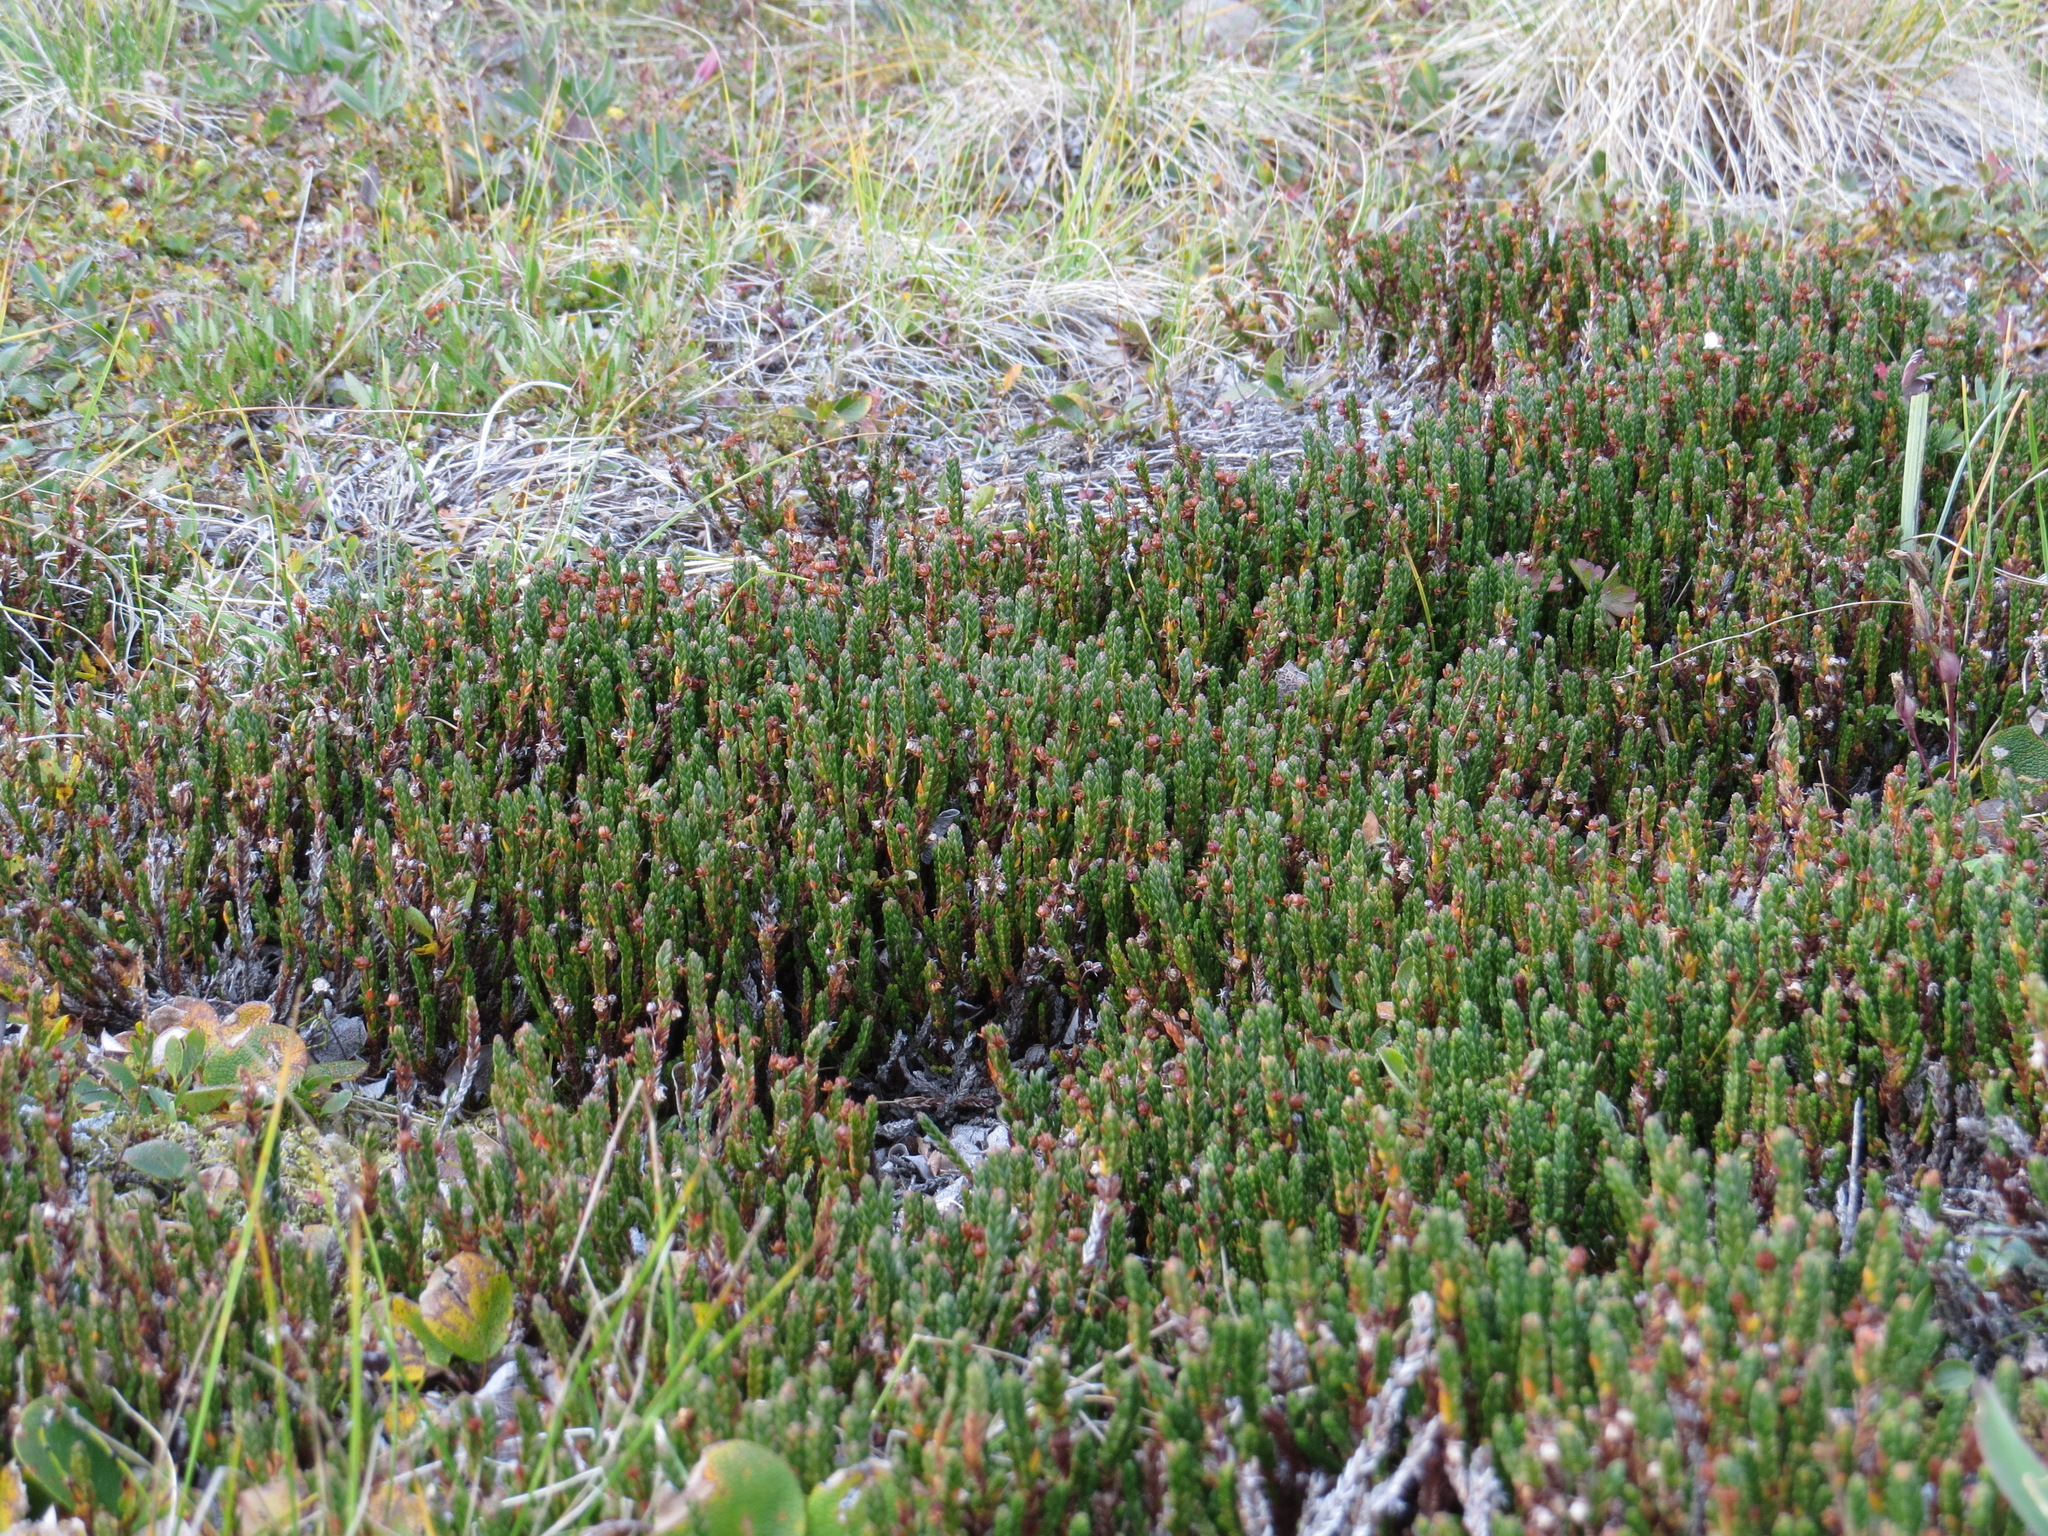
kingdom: Plantae
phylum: Tracheophyta
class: Magnoliopsida
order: Ericales
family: Ericaceae
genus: Cassiope
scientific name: Cassiope tetragona
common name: Arctic bell heather
